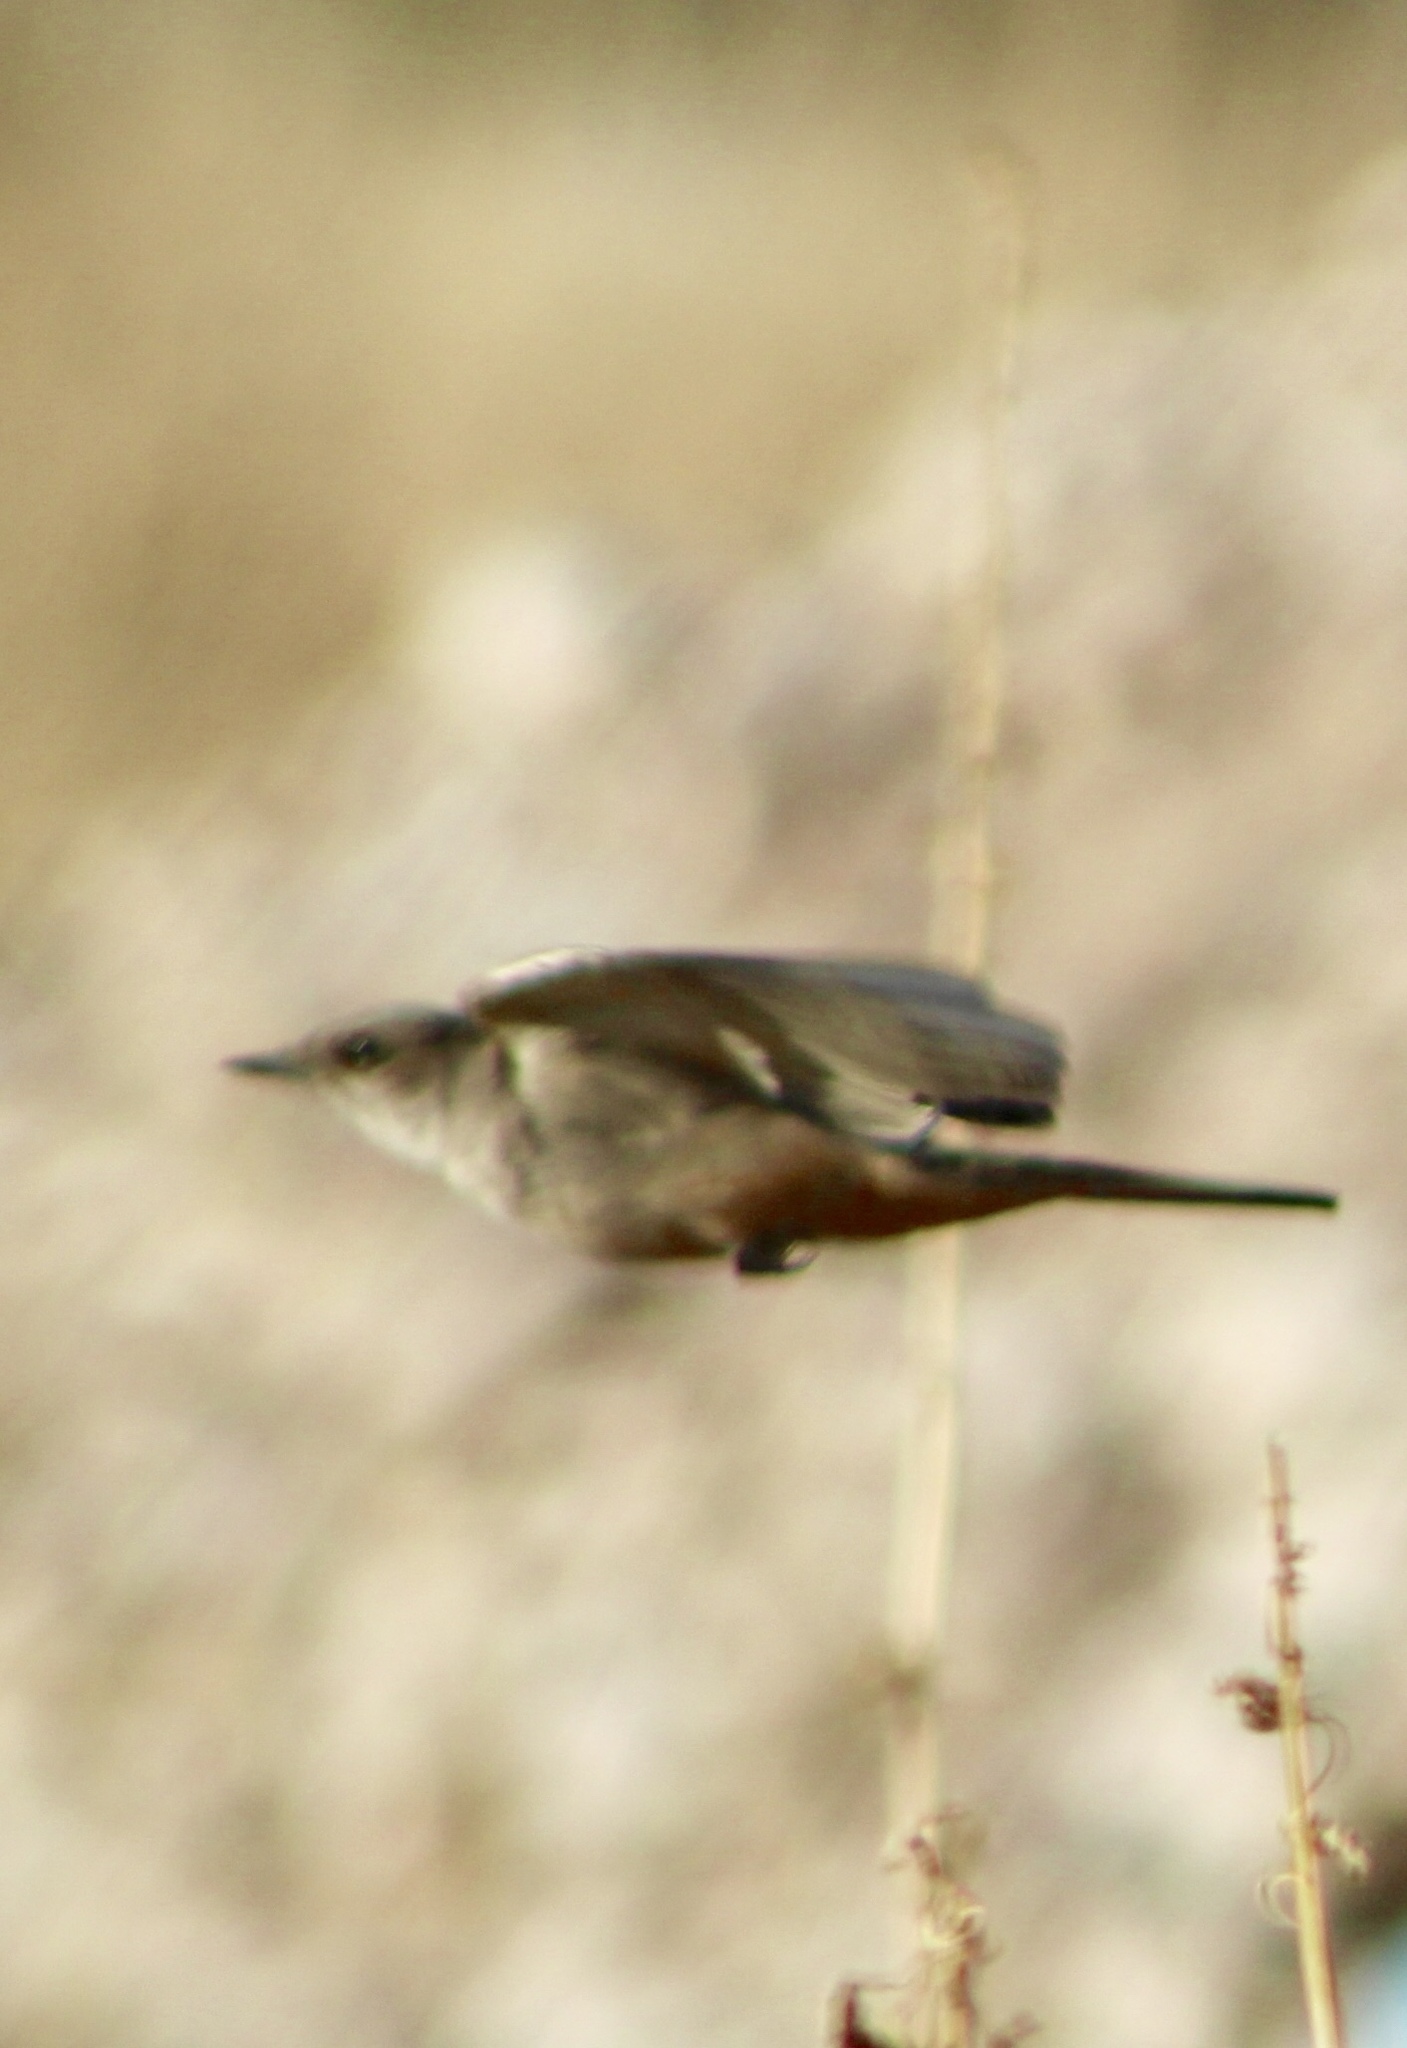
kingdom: Animalia
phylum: Chordata
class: Aves
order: Passeriformes
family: Tyrannidae
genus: Sayornis
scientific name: Sayornis saya
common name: Say's phoebe
